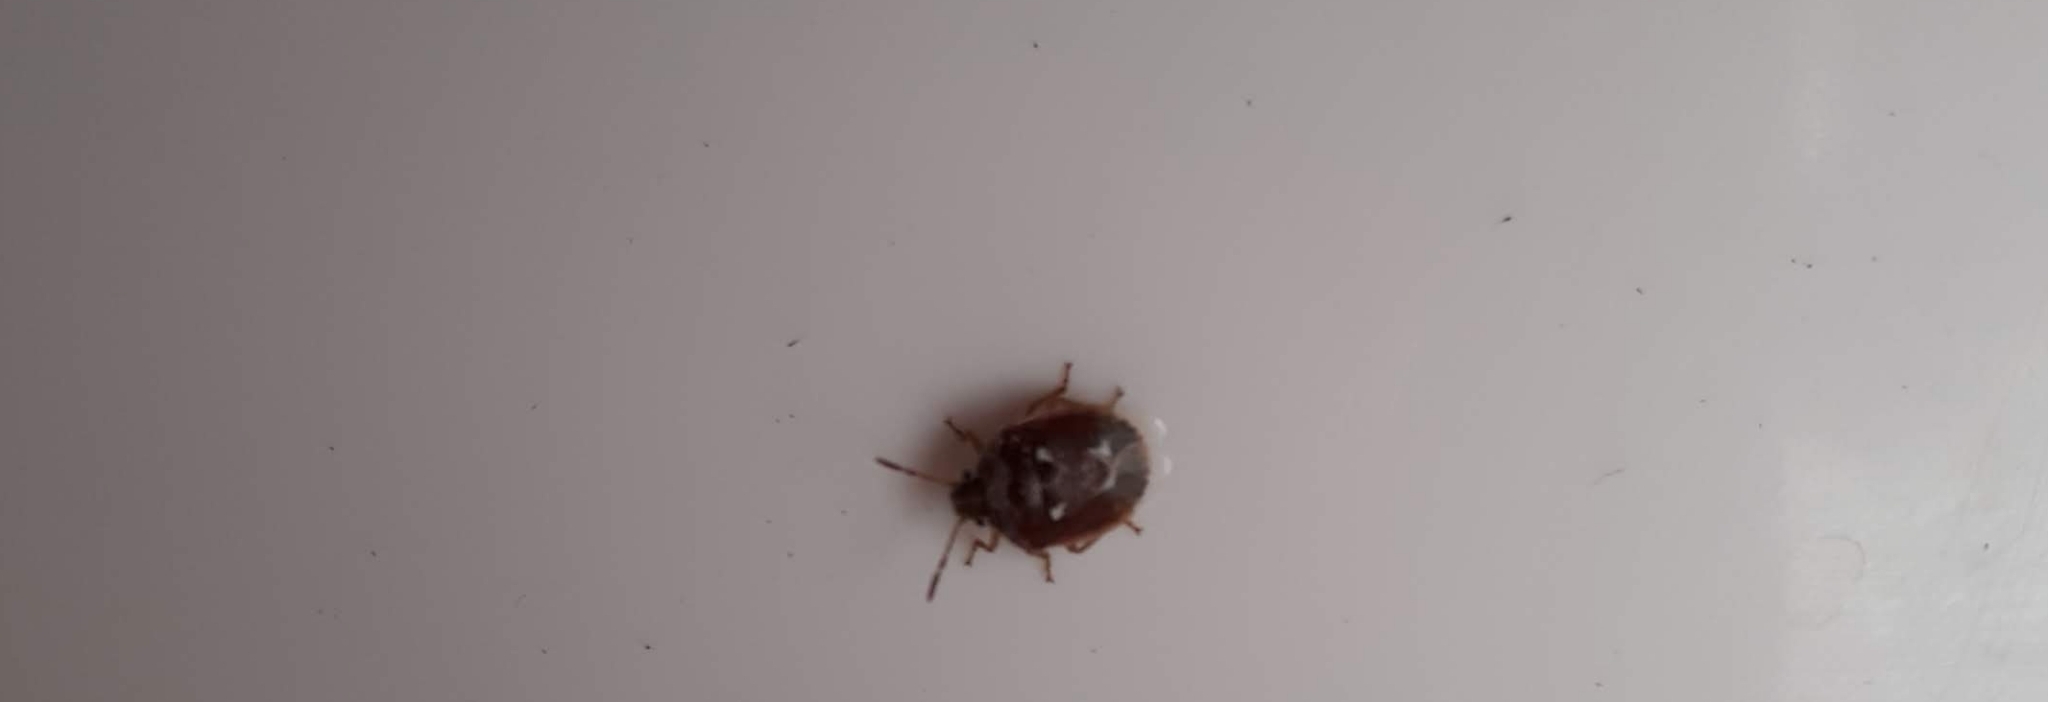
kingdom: Animalia
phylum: Arthropoda
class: Insecta
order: Hemiptera
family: Pentatomidae
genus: Stagonomus
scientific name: Stagonomus bipunctatus
